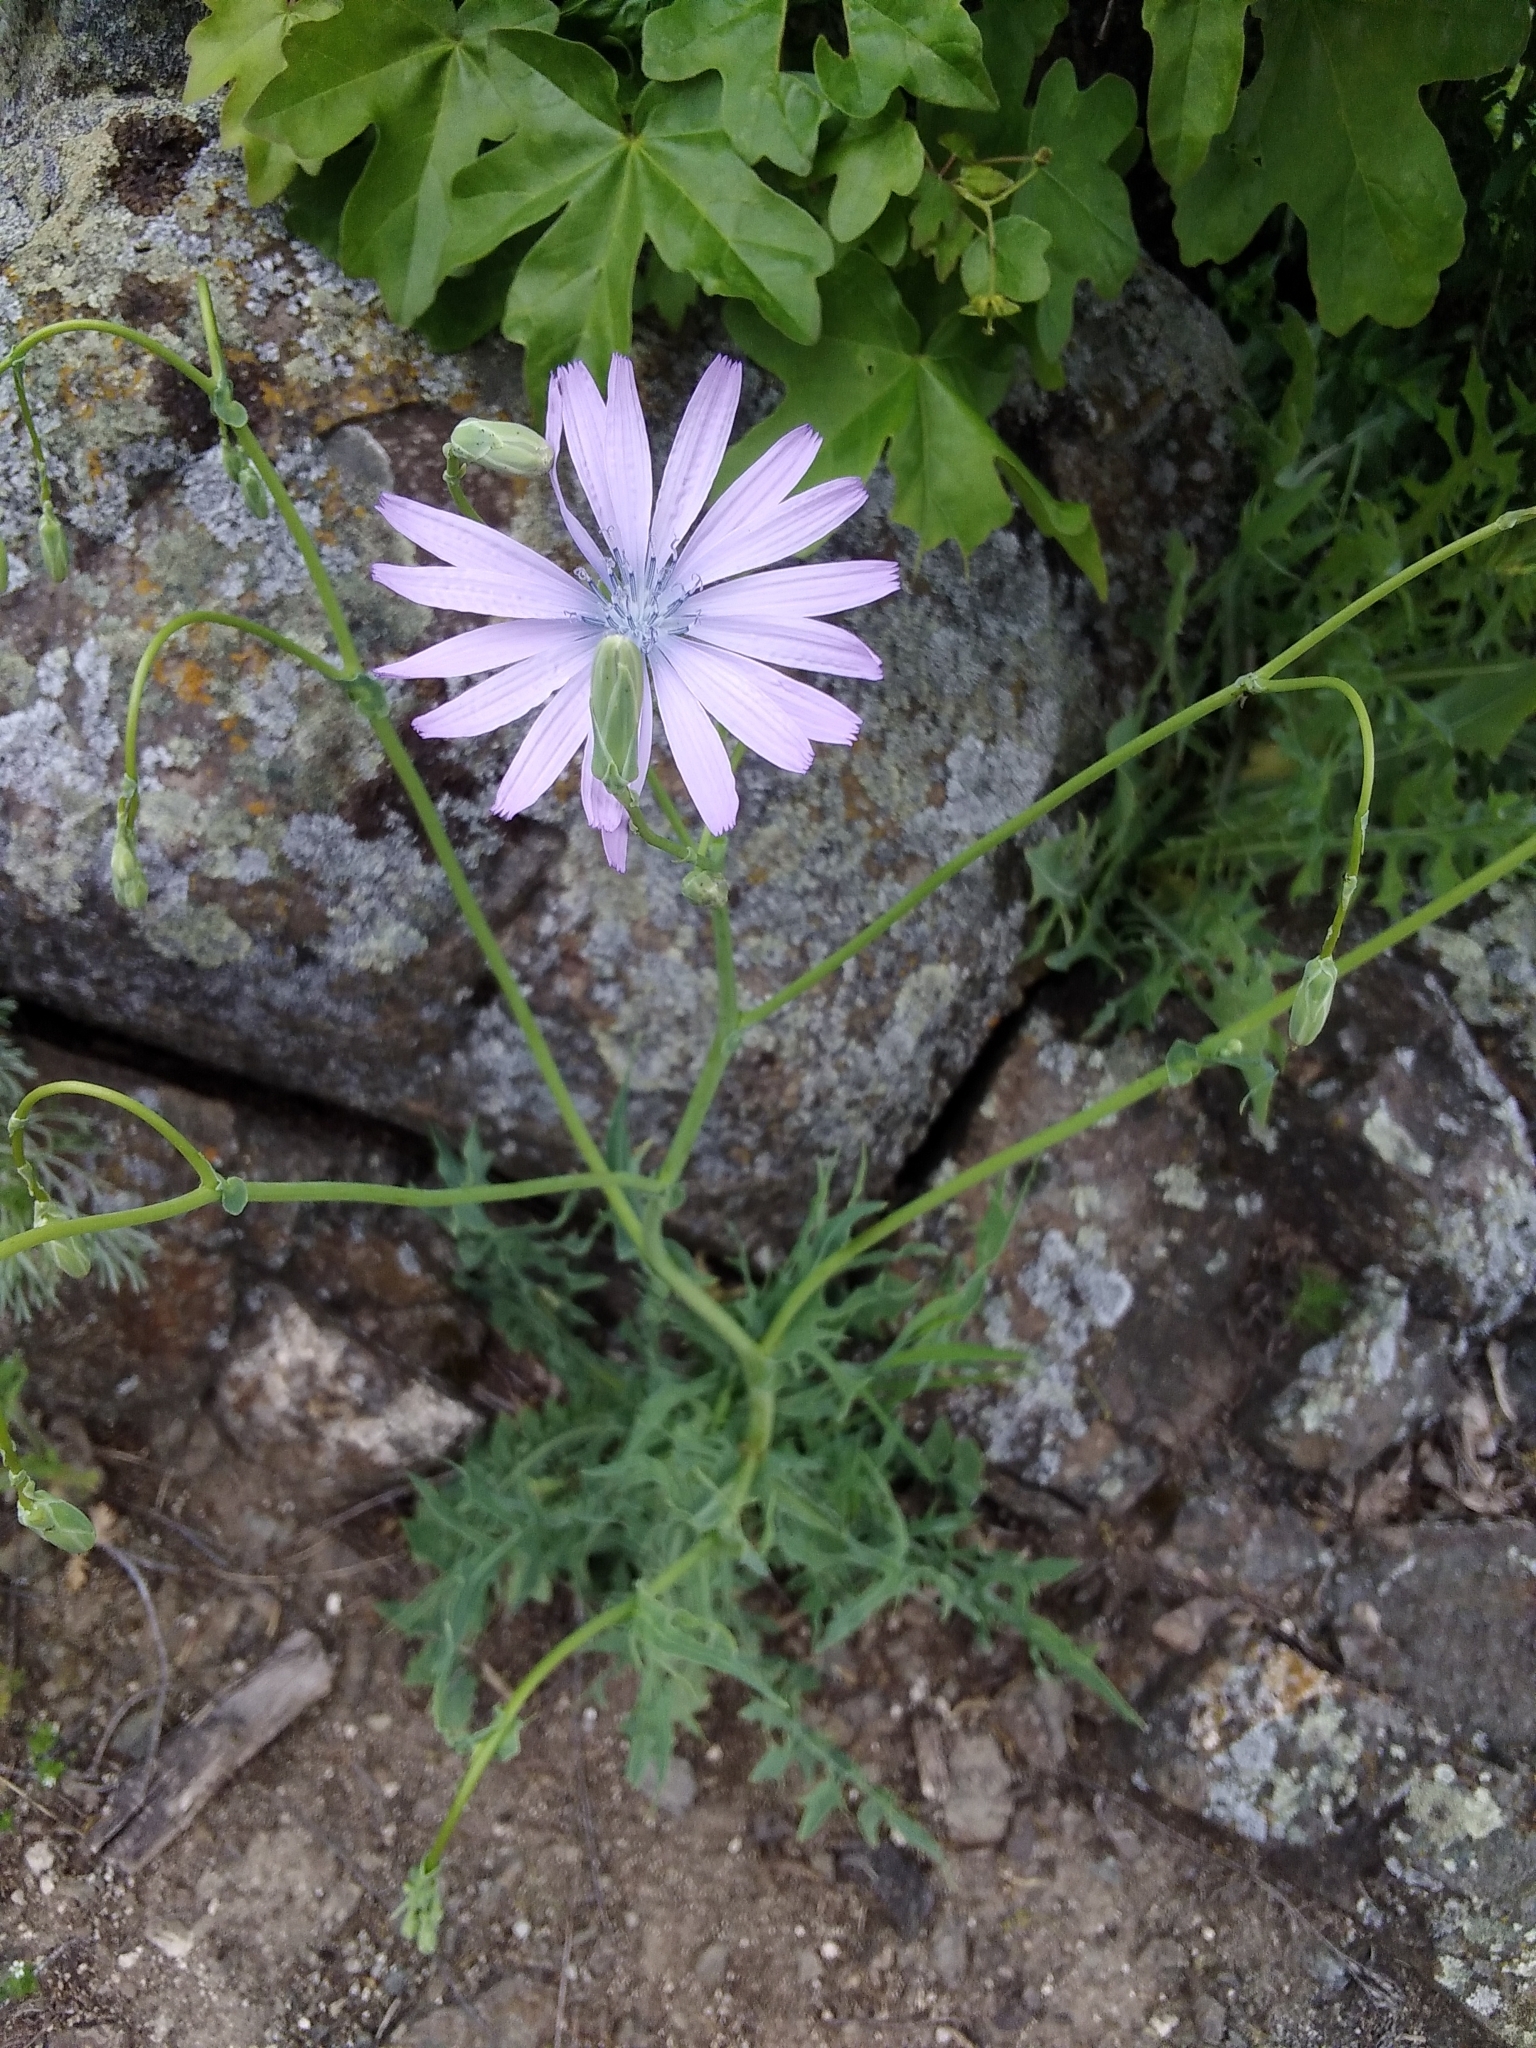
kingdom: Plantae
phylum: Tracheophyta
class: Magnoliopsida
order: Asterales
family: Asteraceae
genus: Lactuca
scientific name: Lactuca perennis
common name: Mountain lettuce
